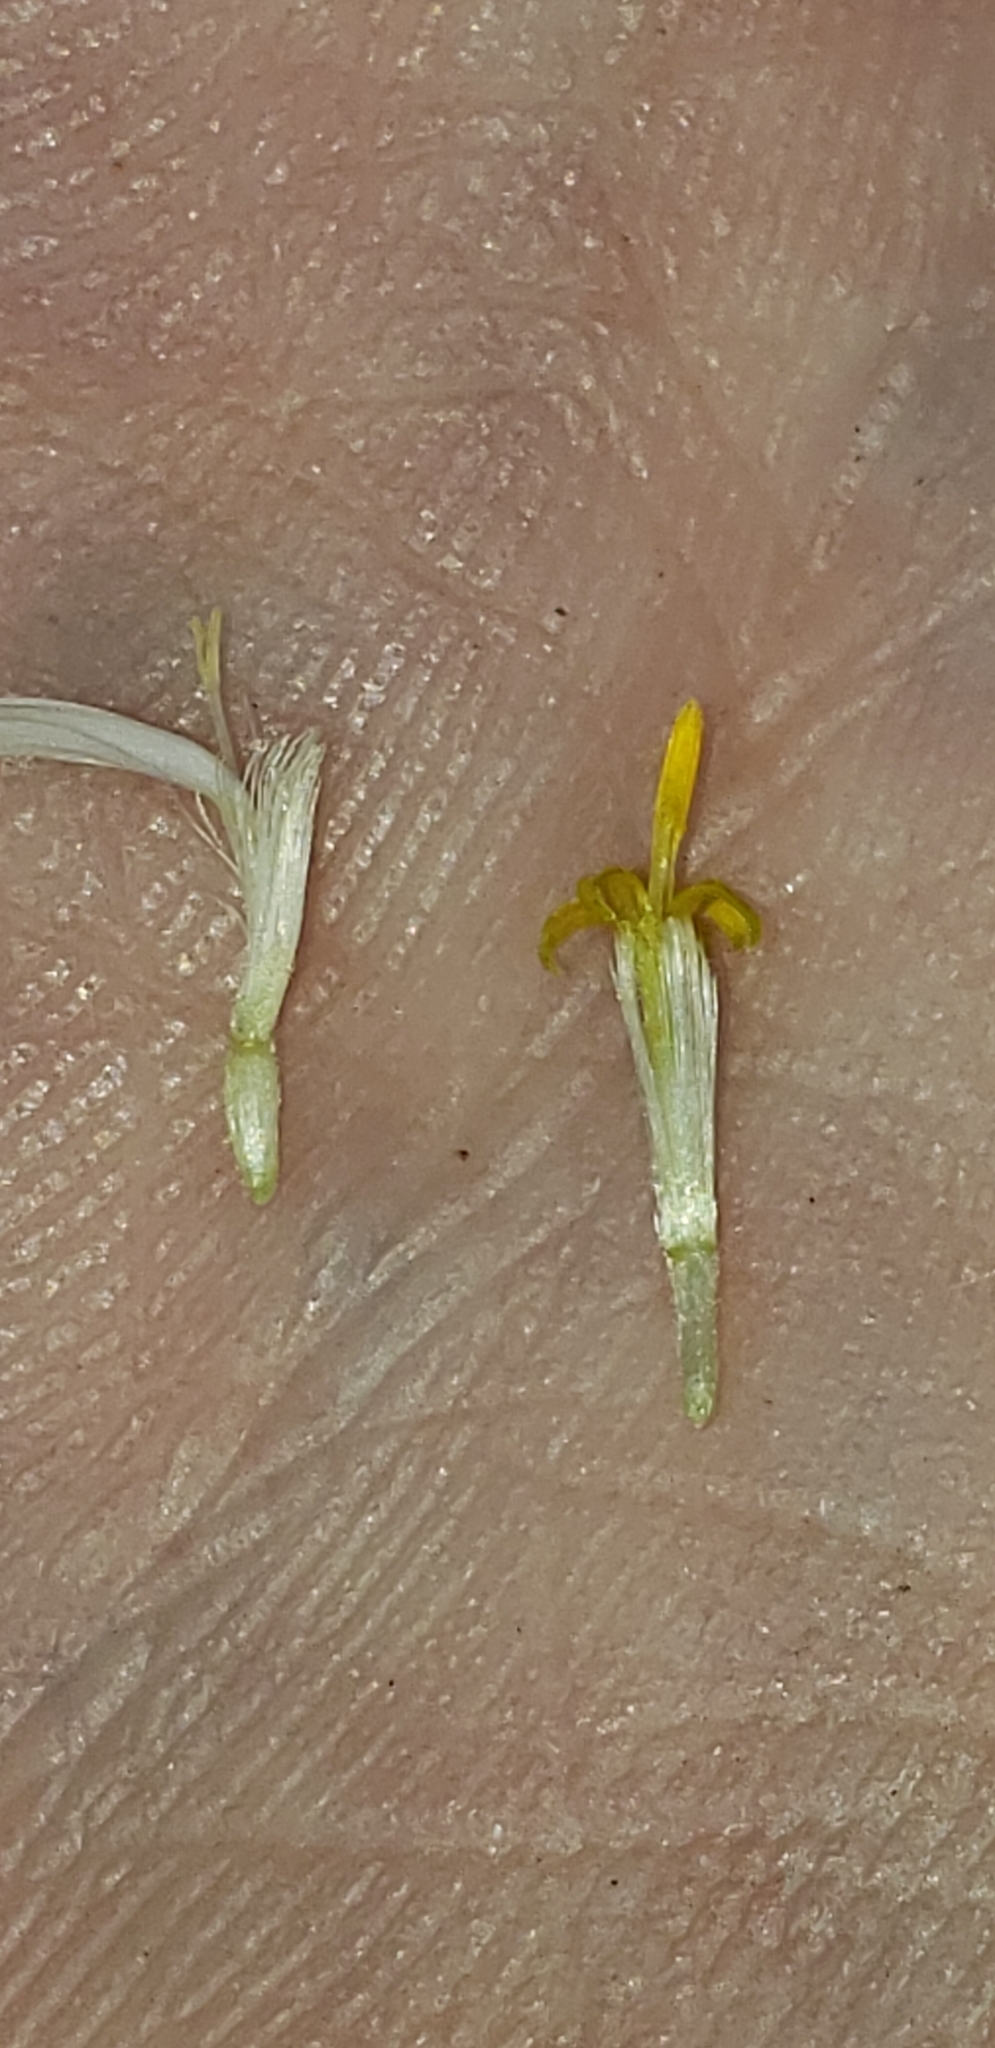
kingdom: Plantae
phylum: Tracheophyta
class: Magnoliopsida
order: Asterales
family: Asteraceae
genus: Doellingeria
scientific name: Doellingeria umbellata
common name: Flat-top white aster
